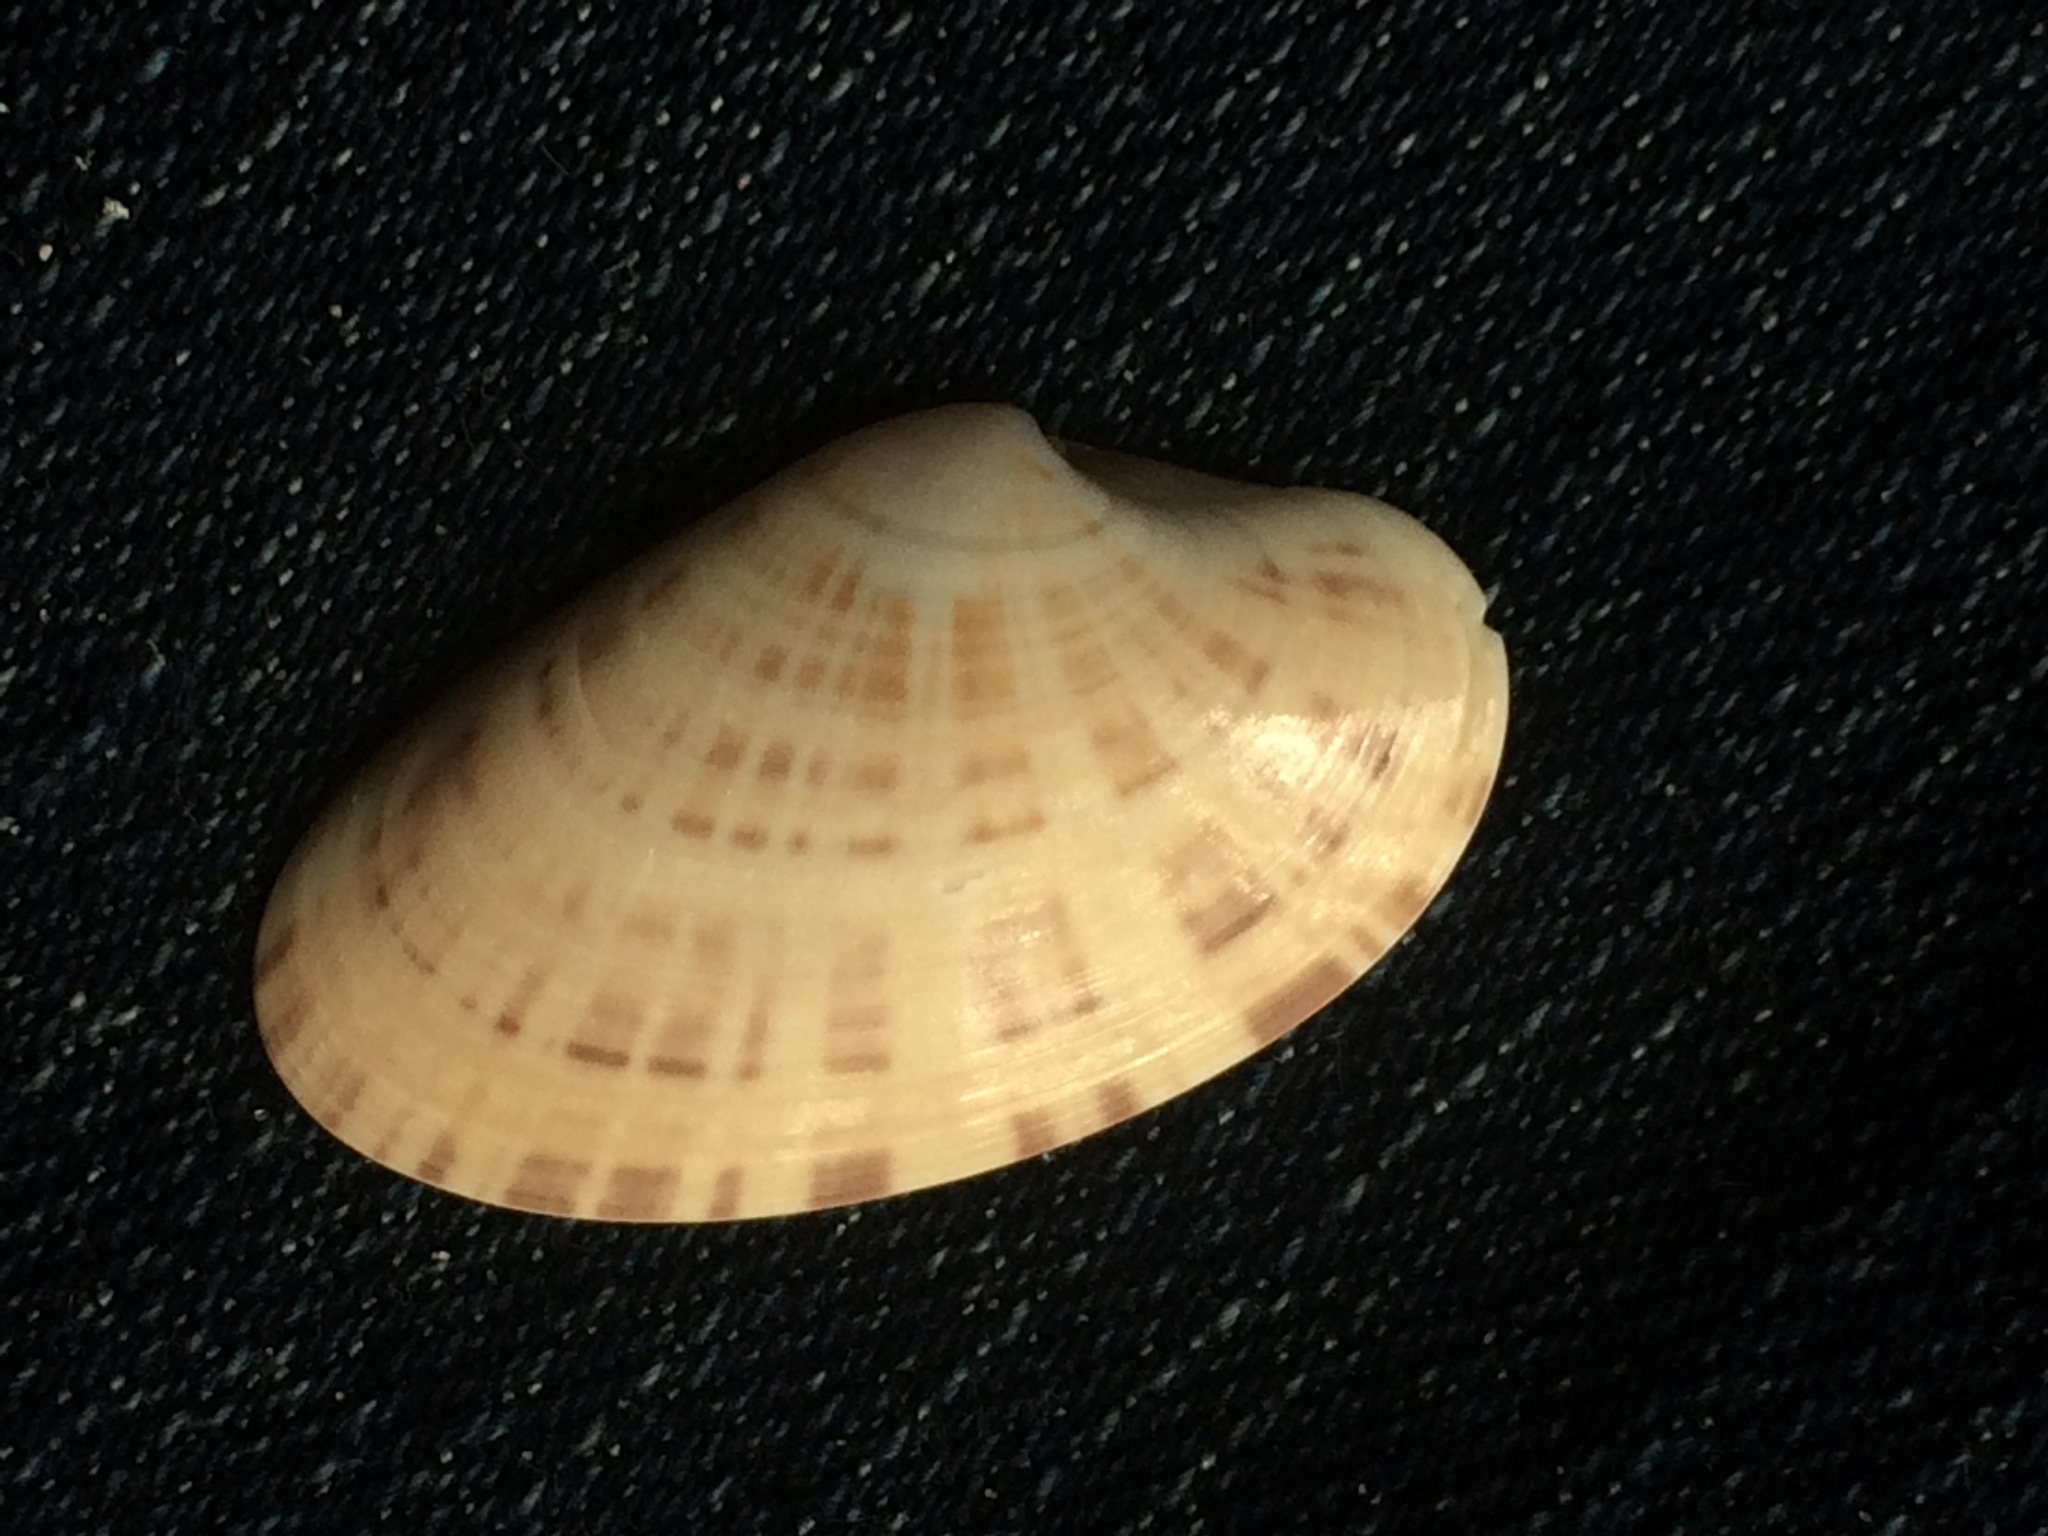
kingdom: Animalia
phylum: Mollusca
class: Bivalvia
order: Venerida
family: Veneridae
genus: Macrocallista
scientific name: Macrocallista nimbosa
